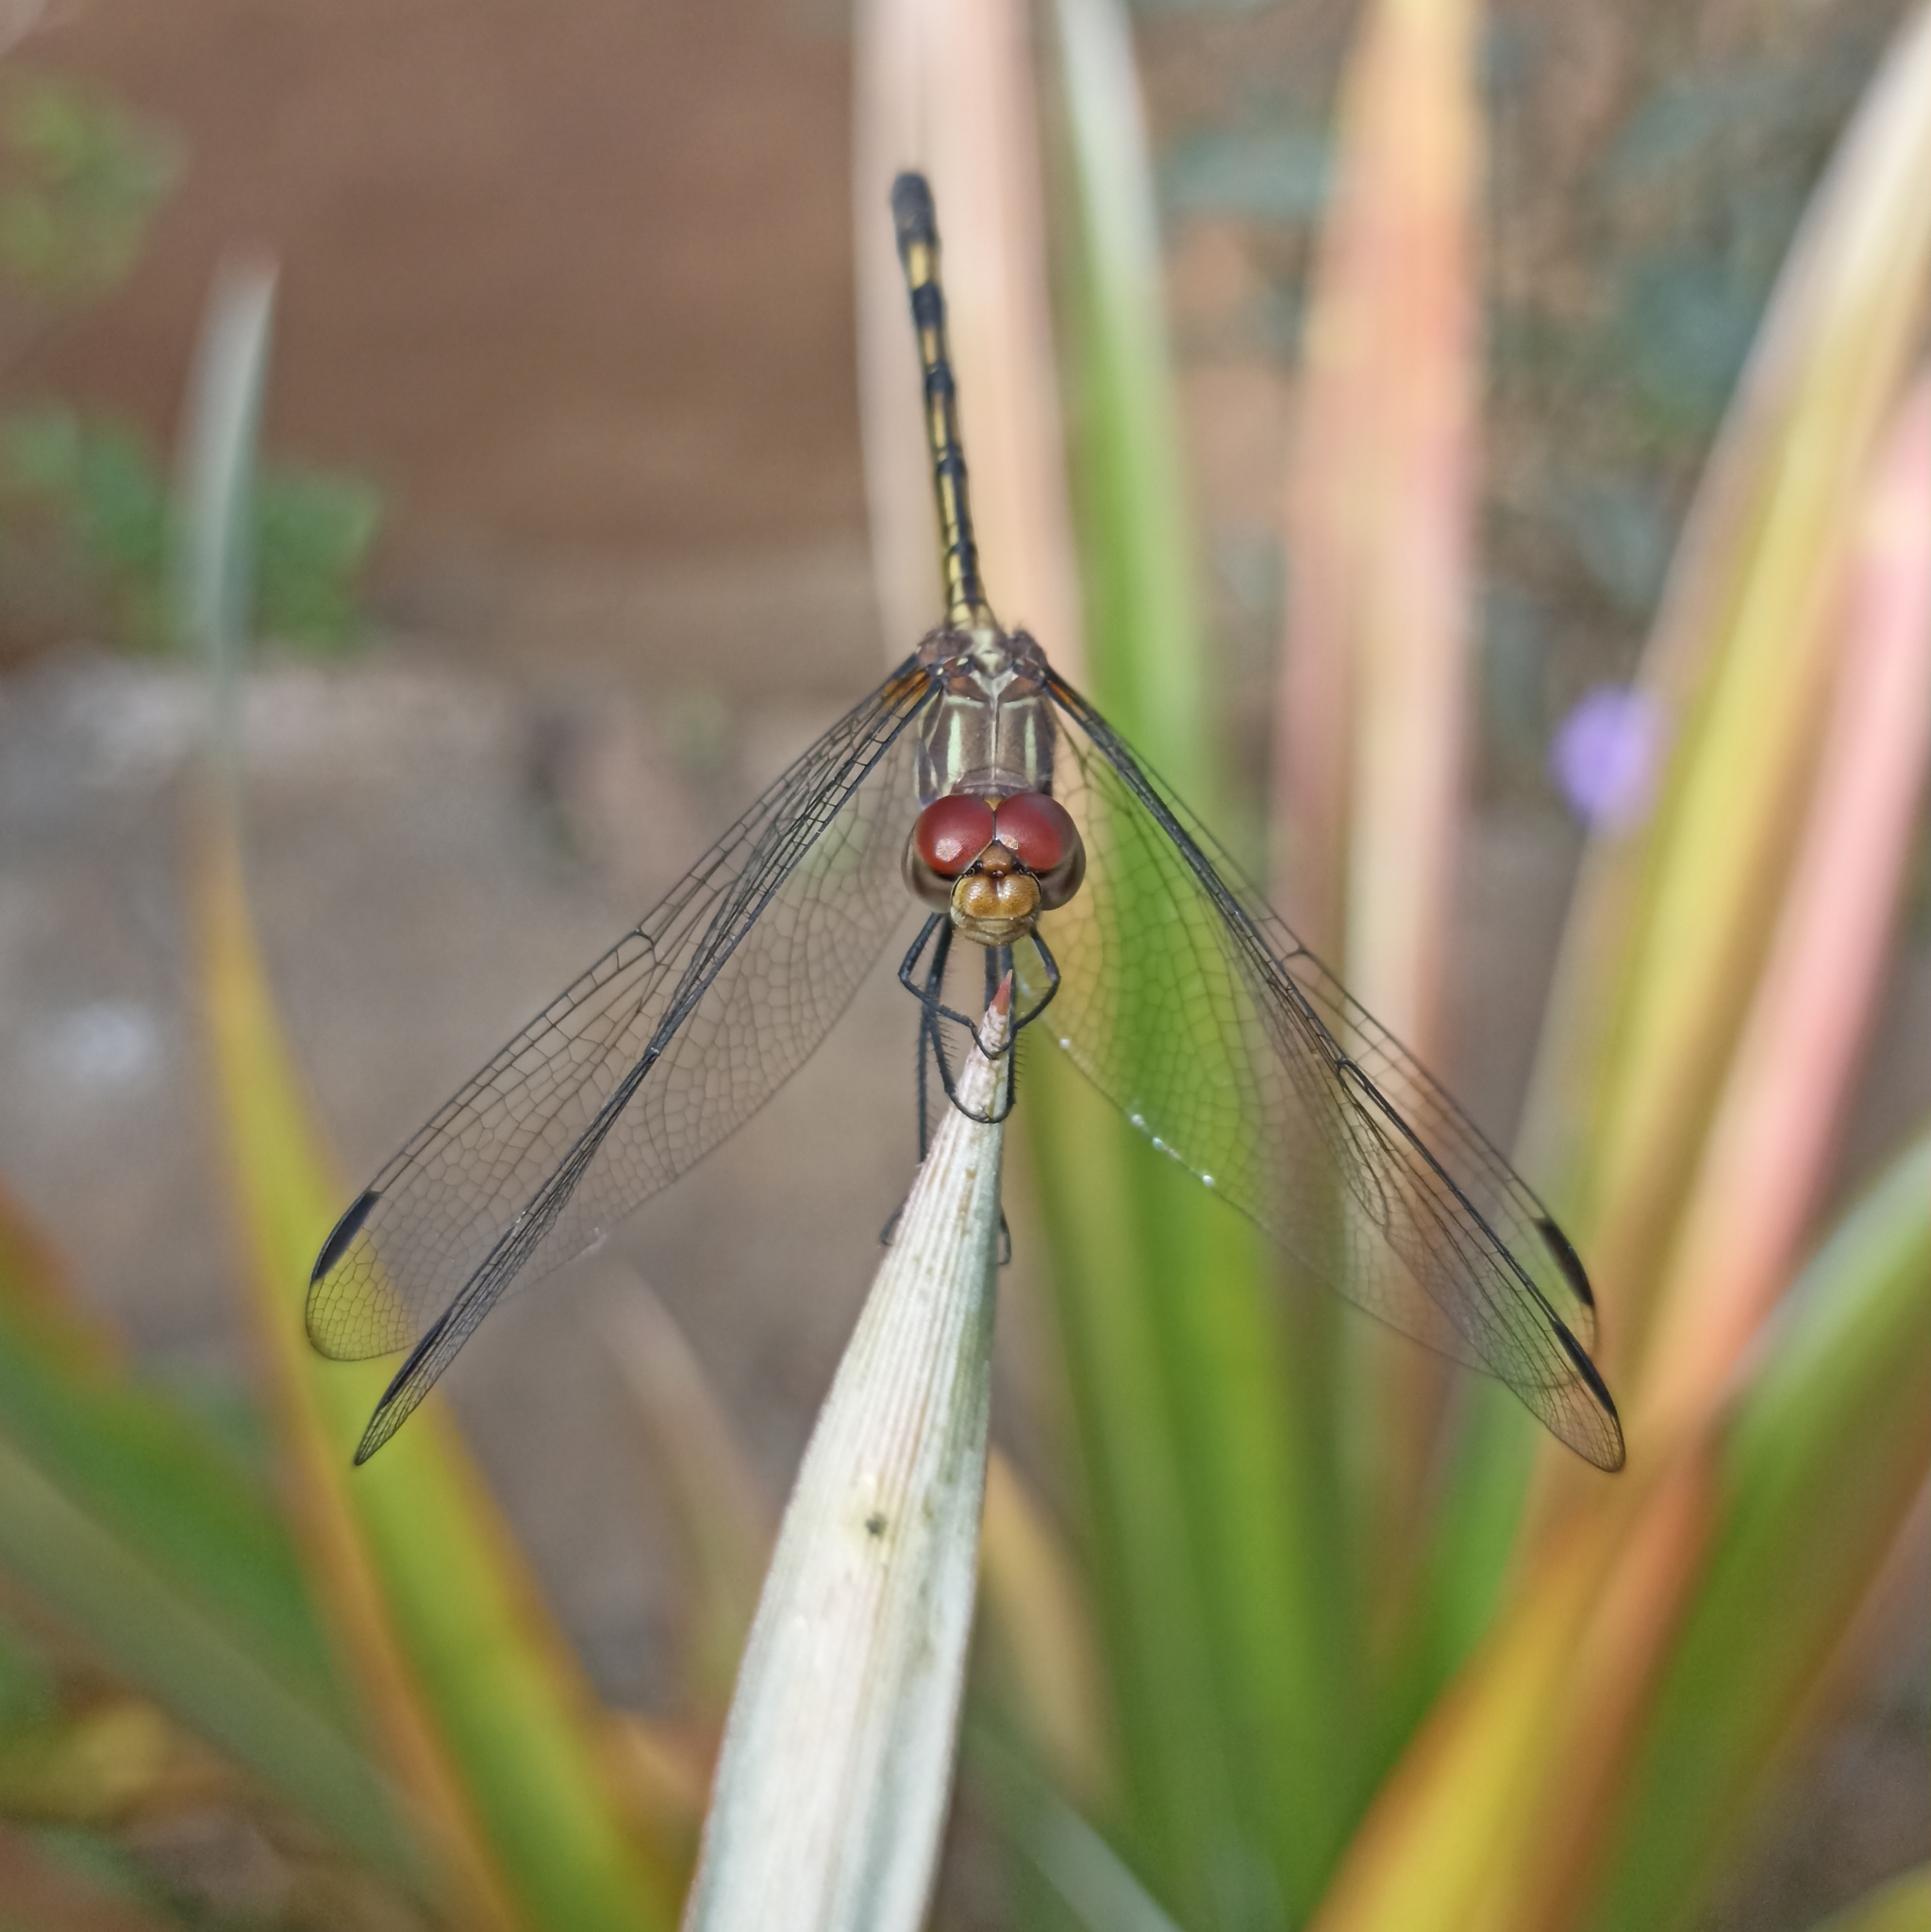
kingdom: Animalia
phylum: Arthropoda
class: Insecta
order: Odonata
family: Libellulidae
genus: Dythemis
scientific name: Dythemis sterilis
